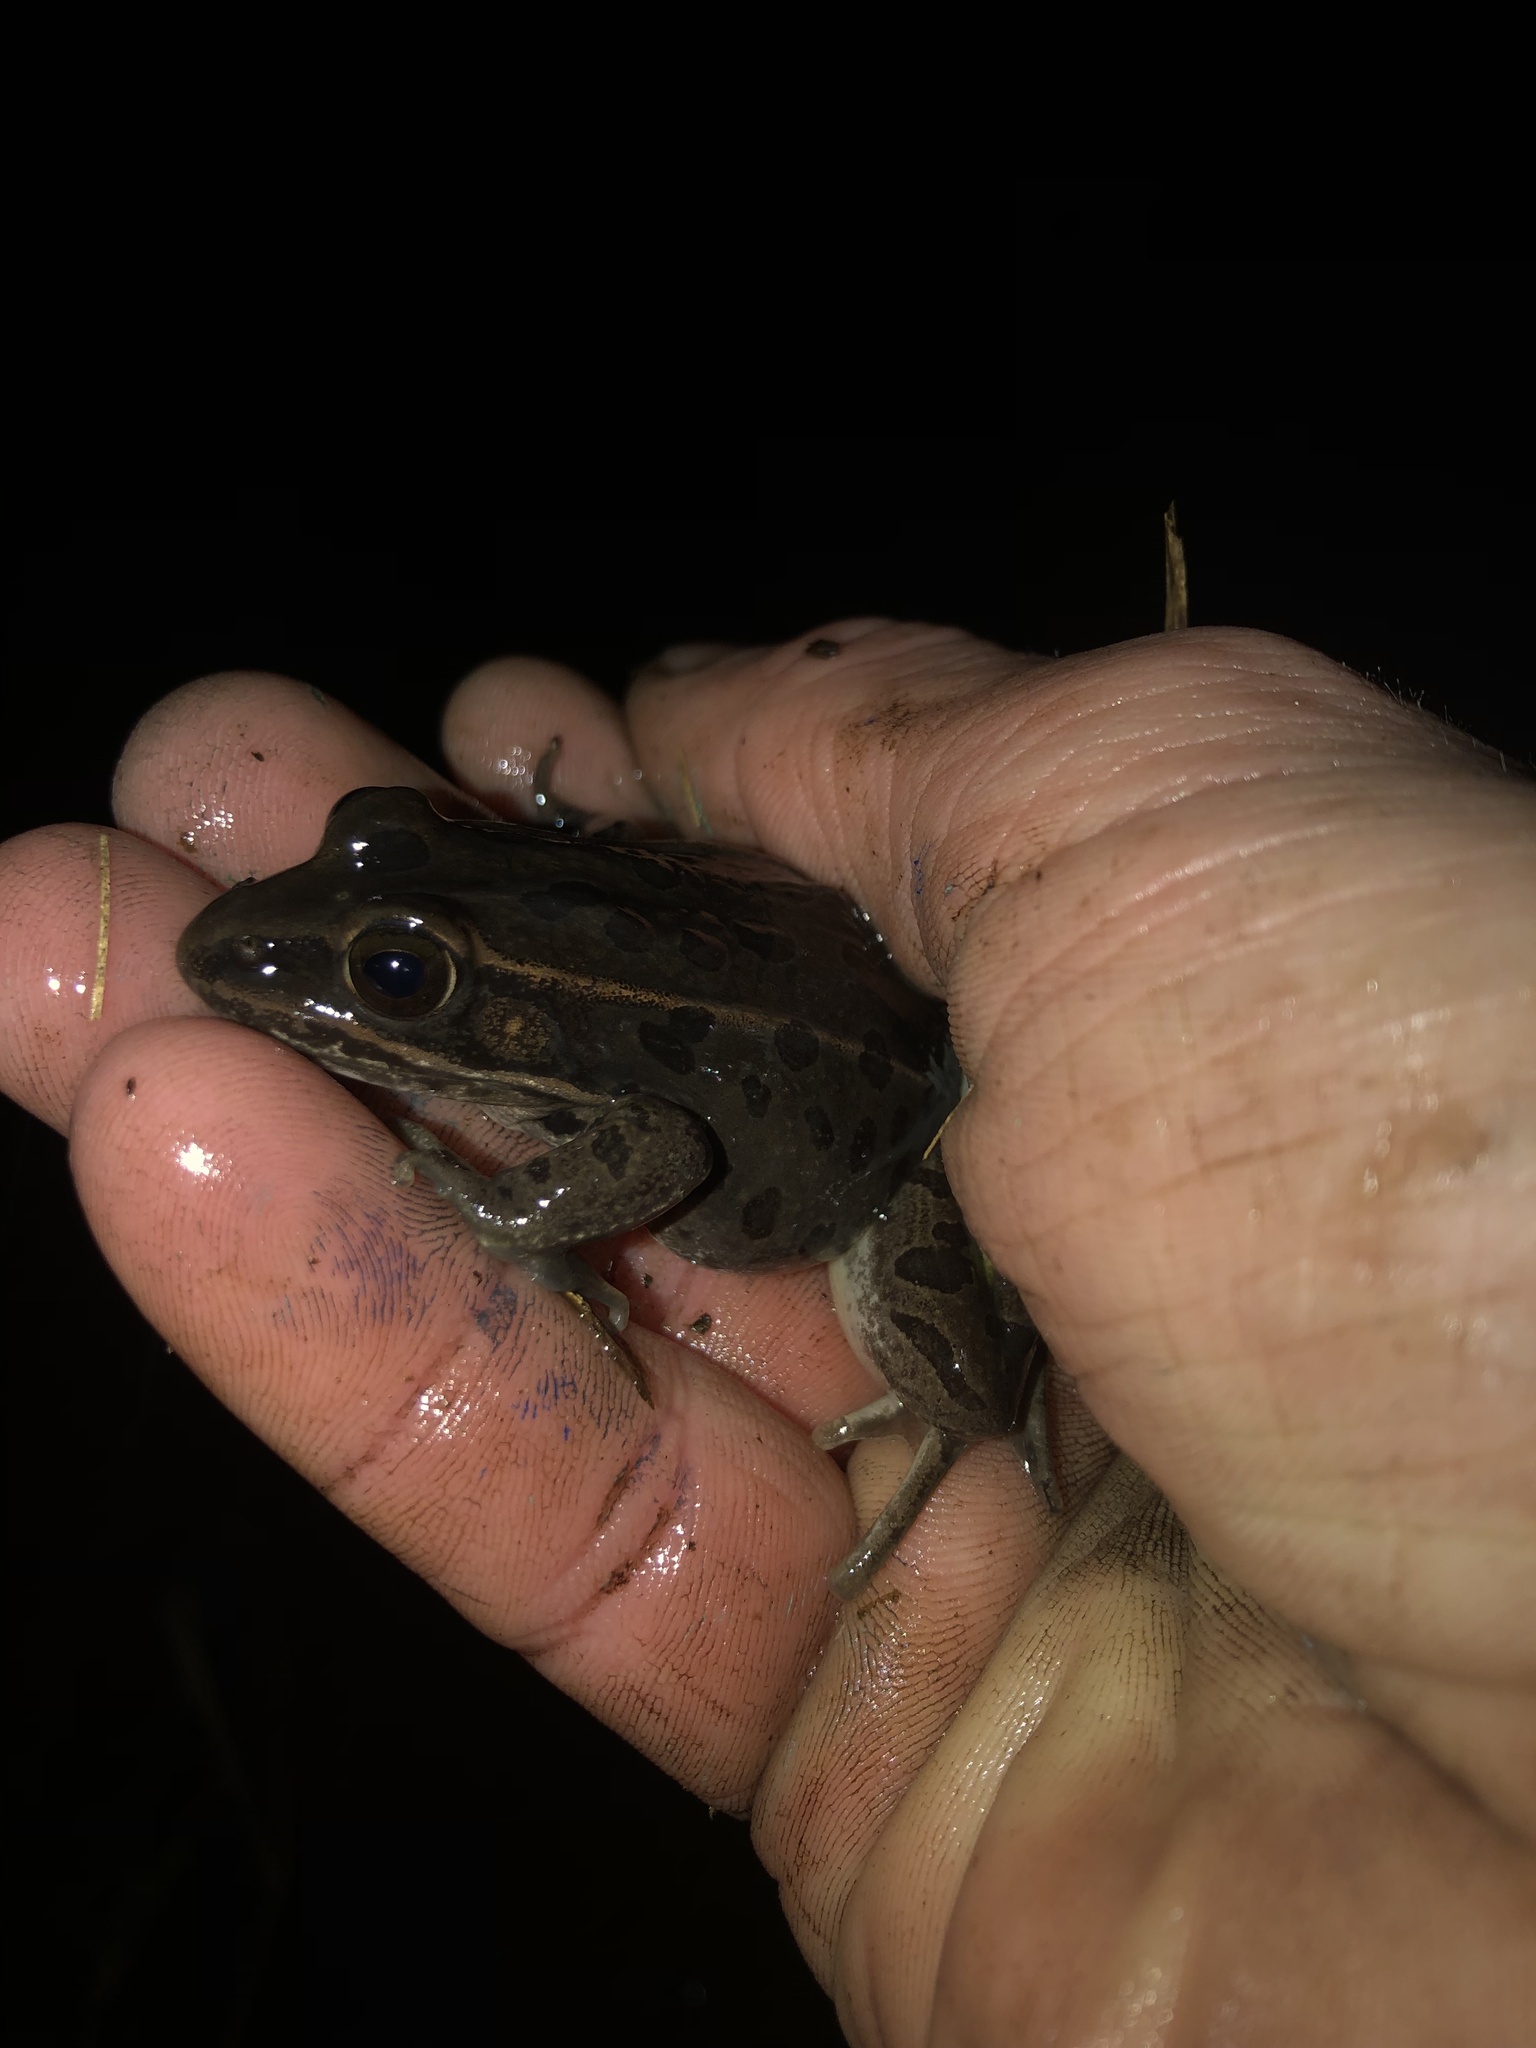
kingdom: Animalia
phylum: Chordata
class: Amphibia
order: Anura
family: Ranidae
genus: Lithobates
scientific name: Lithobates sphenocephalus
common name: Southern leopard frog
